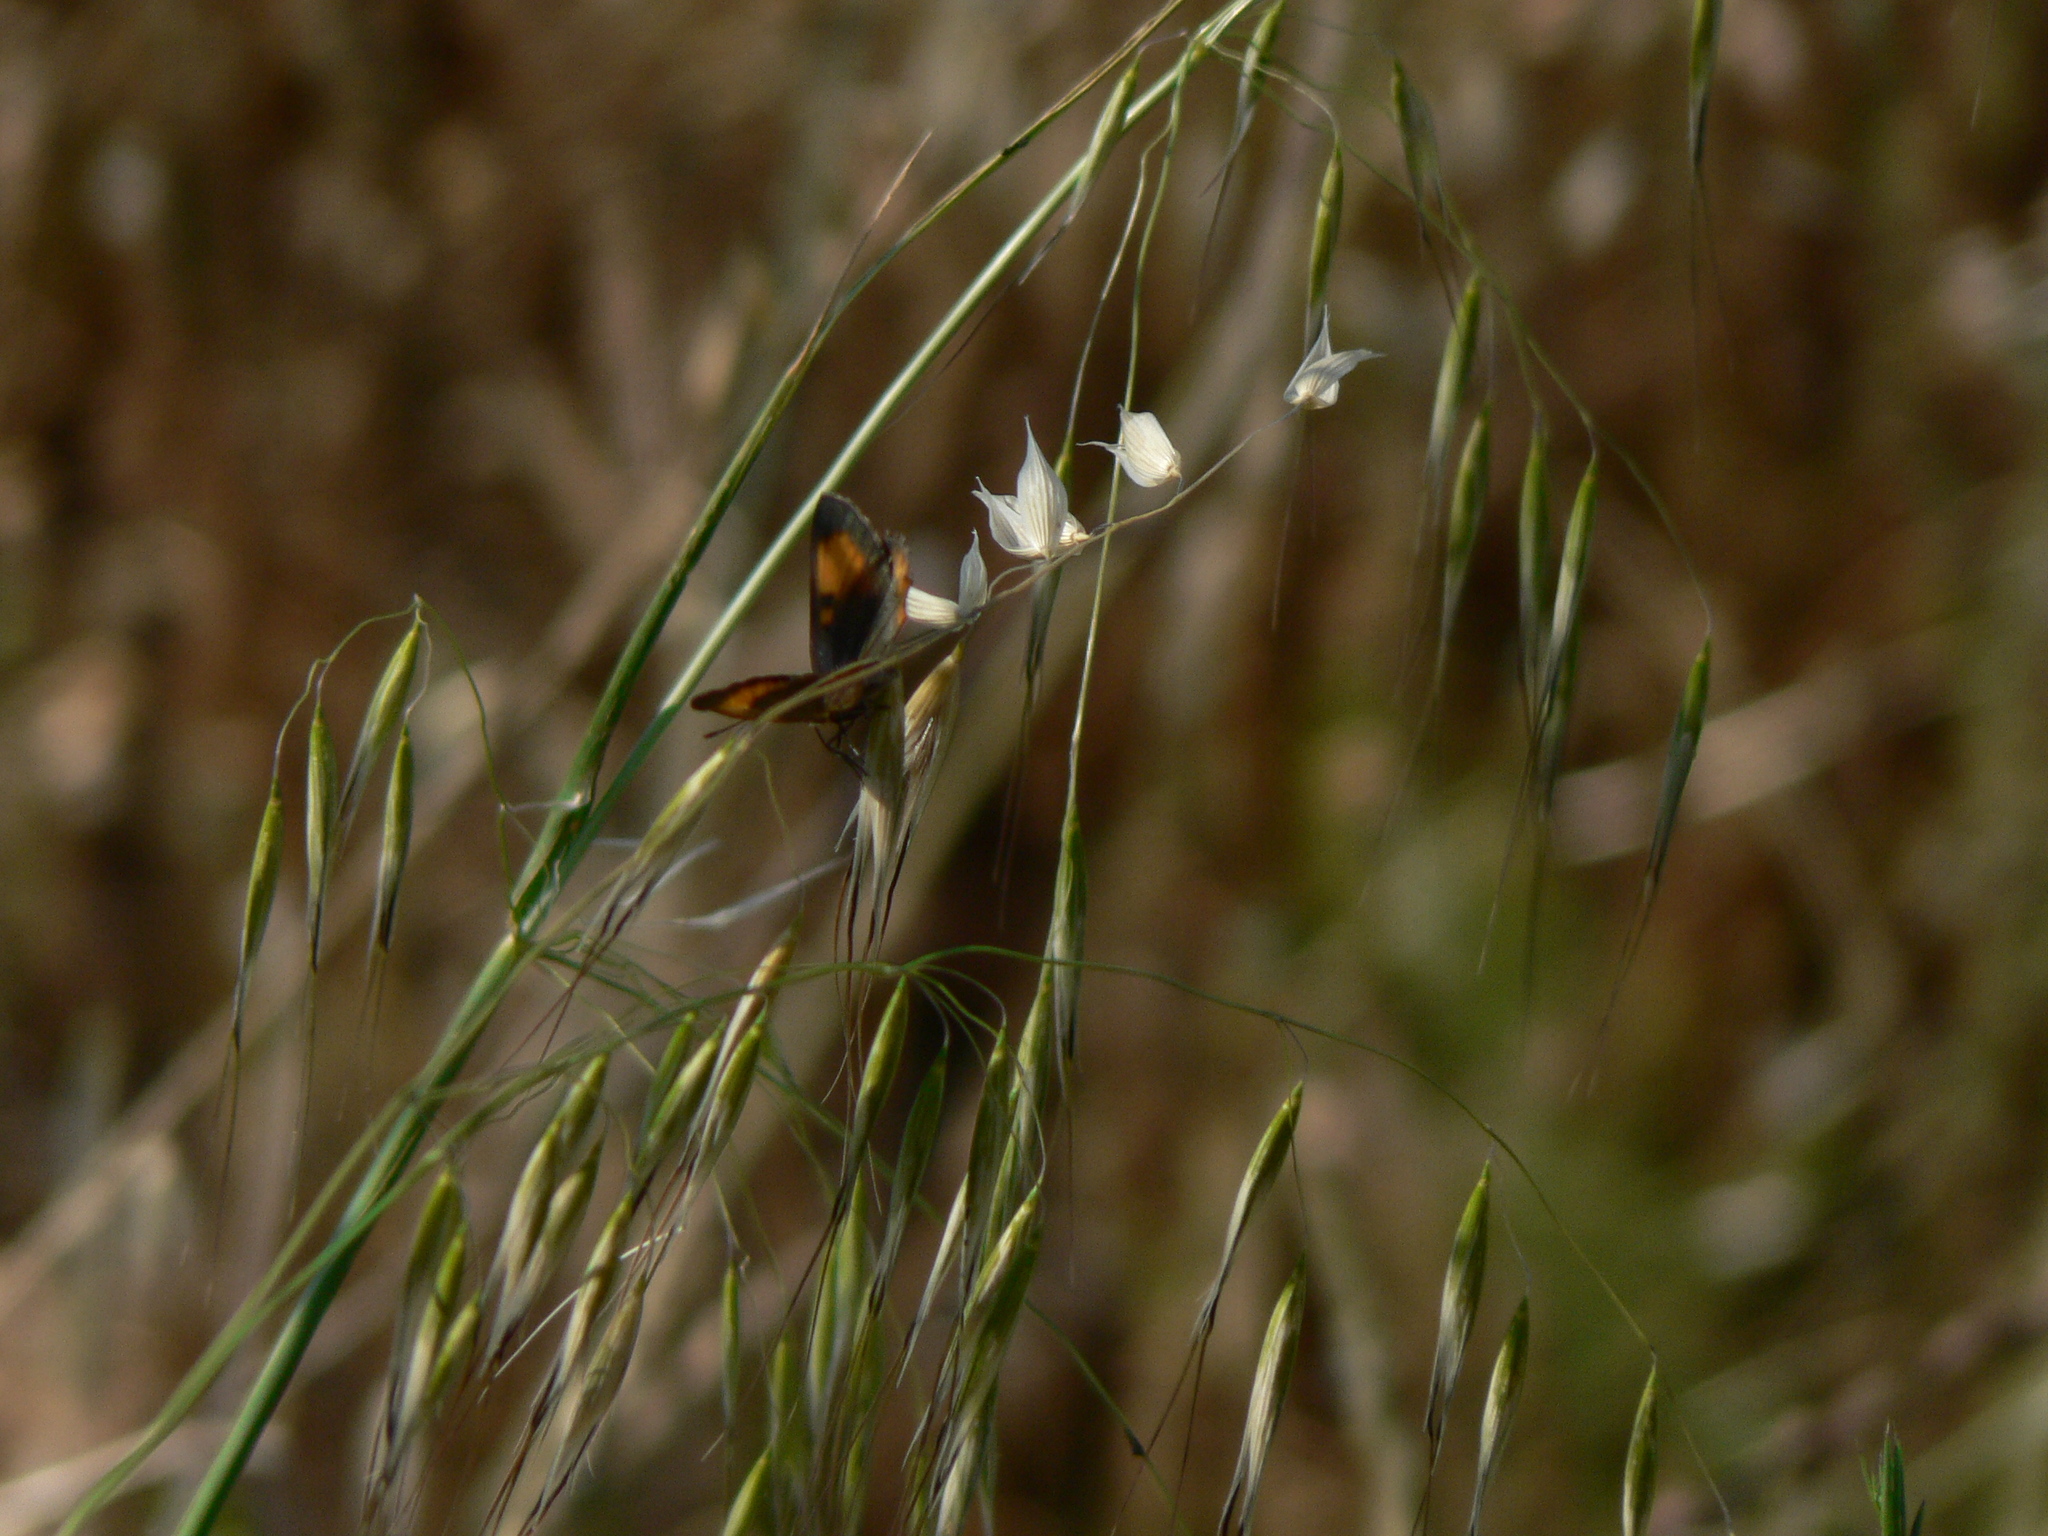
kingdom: Animalia
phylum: Arthropoda
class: Insecta
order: Lepidoptera
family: Lycaenidae
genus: Lycaena
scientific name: Lycaena phlaeas
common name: Small copper
